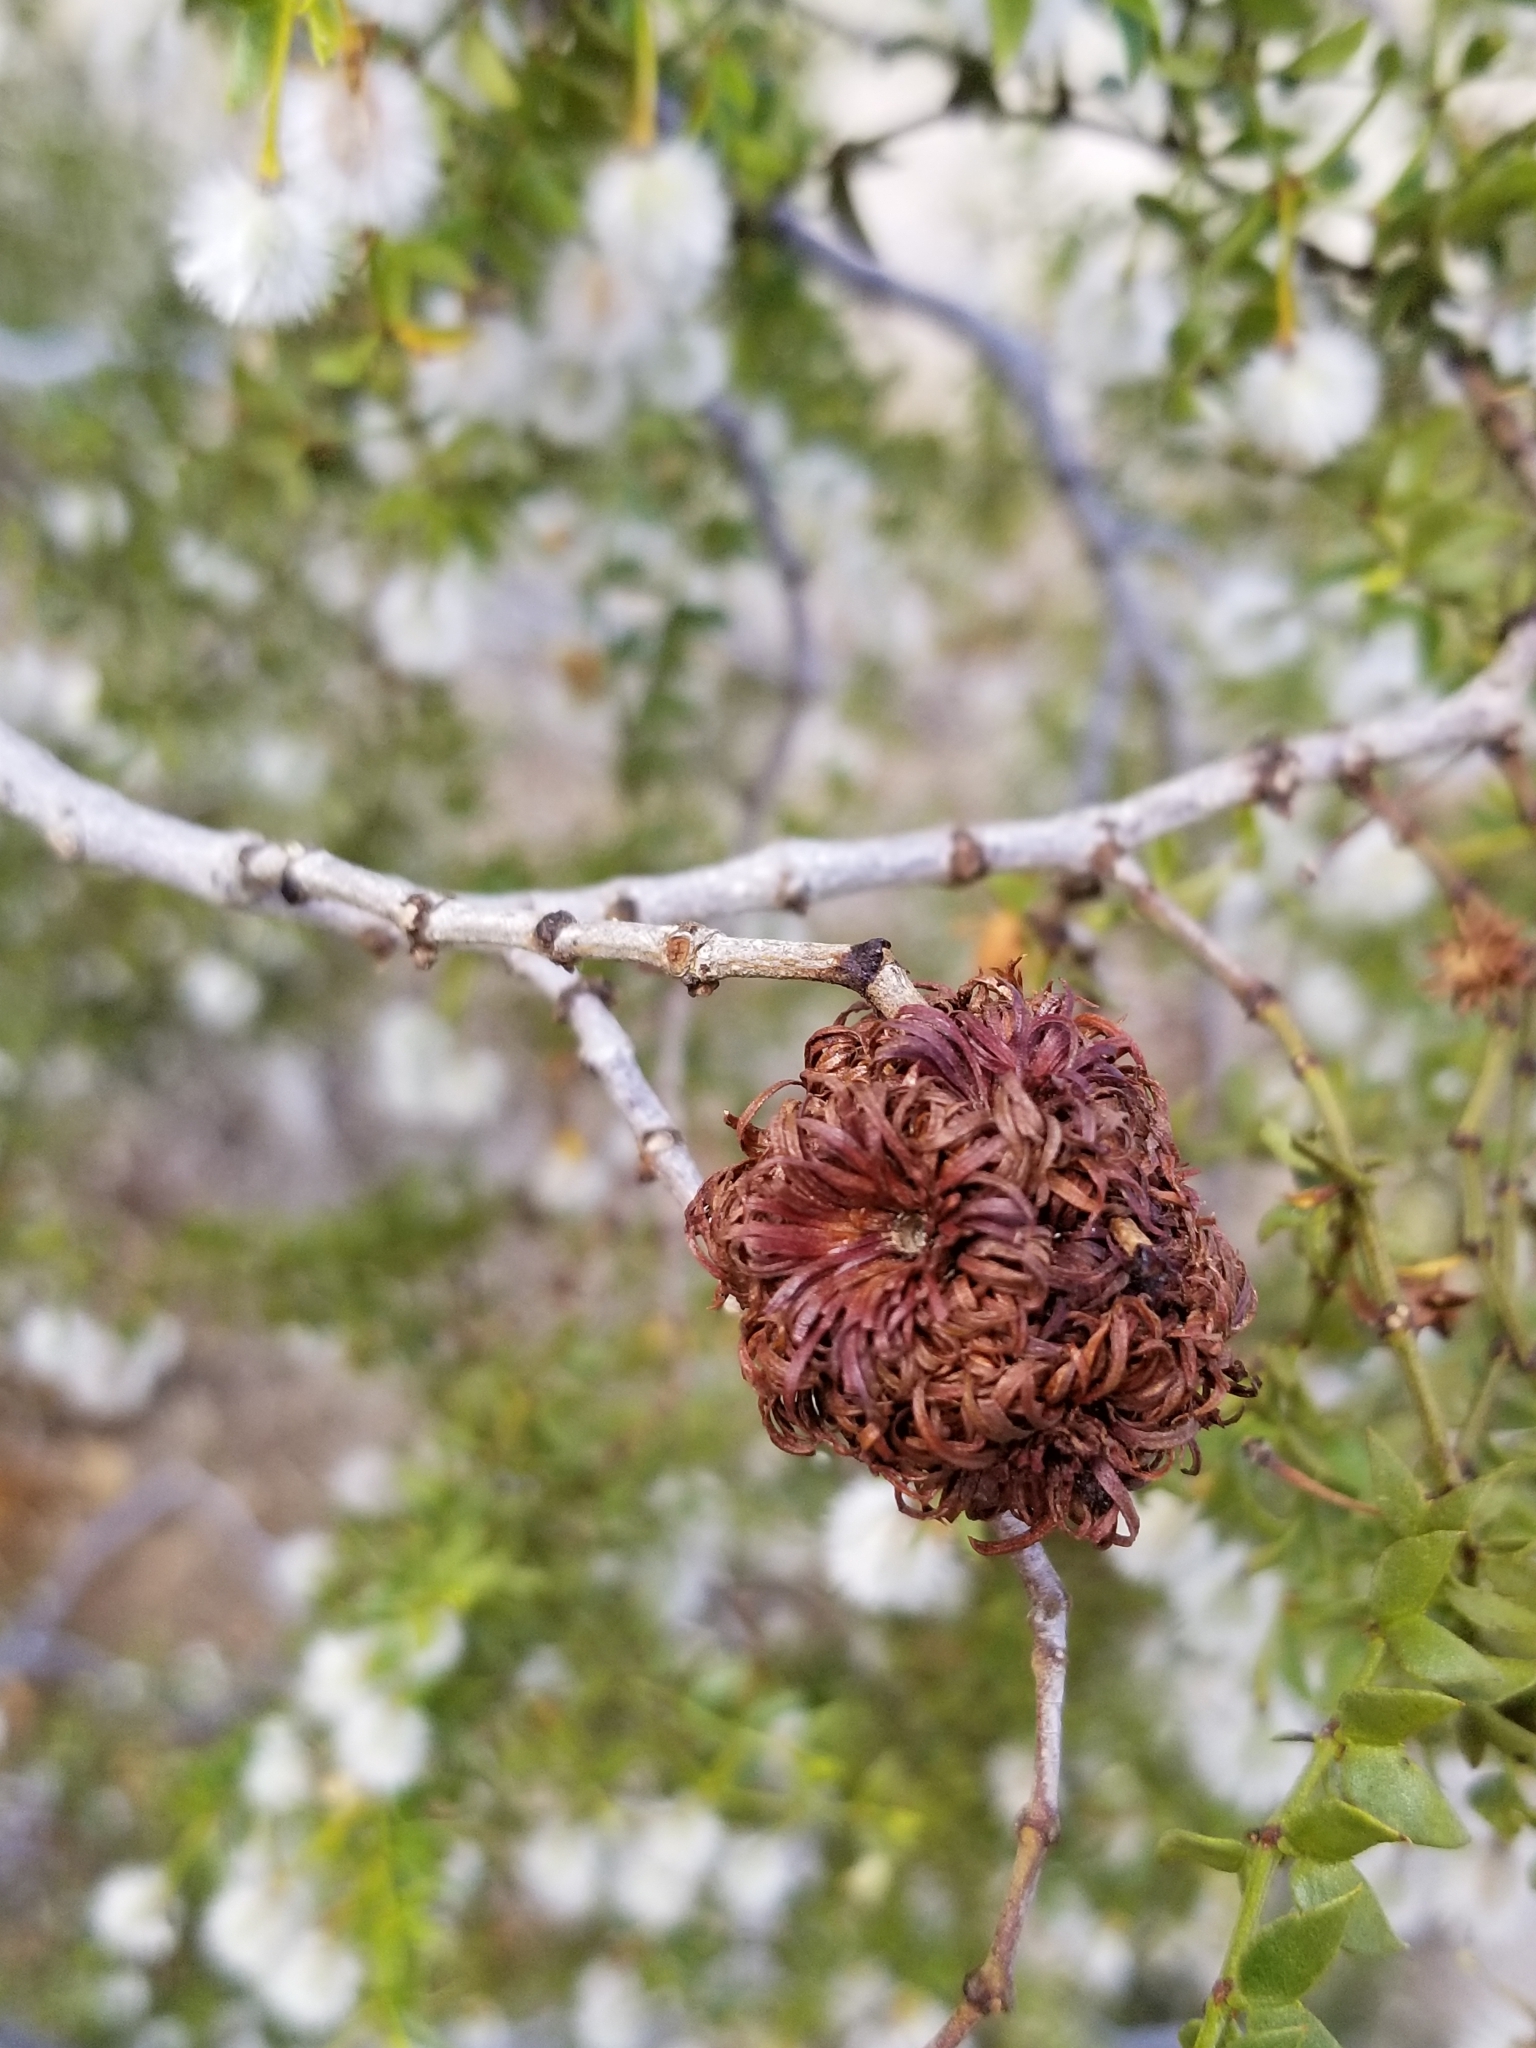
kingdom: Animalia
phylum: Arthropoda
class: Insecta
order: Diptera
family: Cecidomyiidae
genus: Asphondylia
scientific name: Asphondylia auripila
